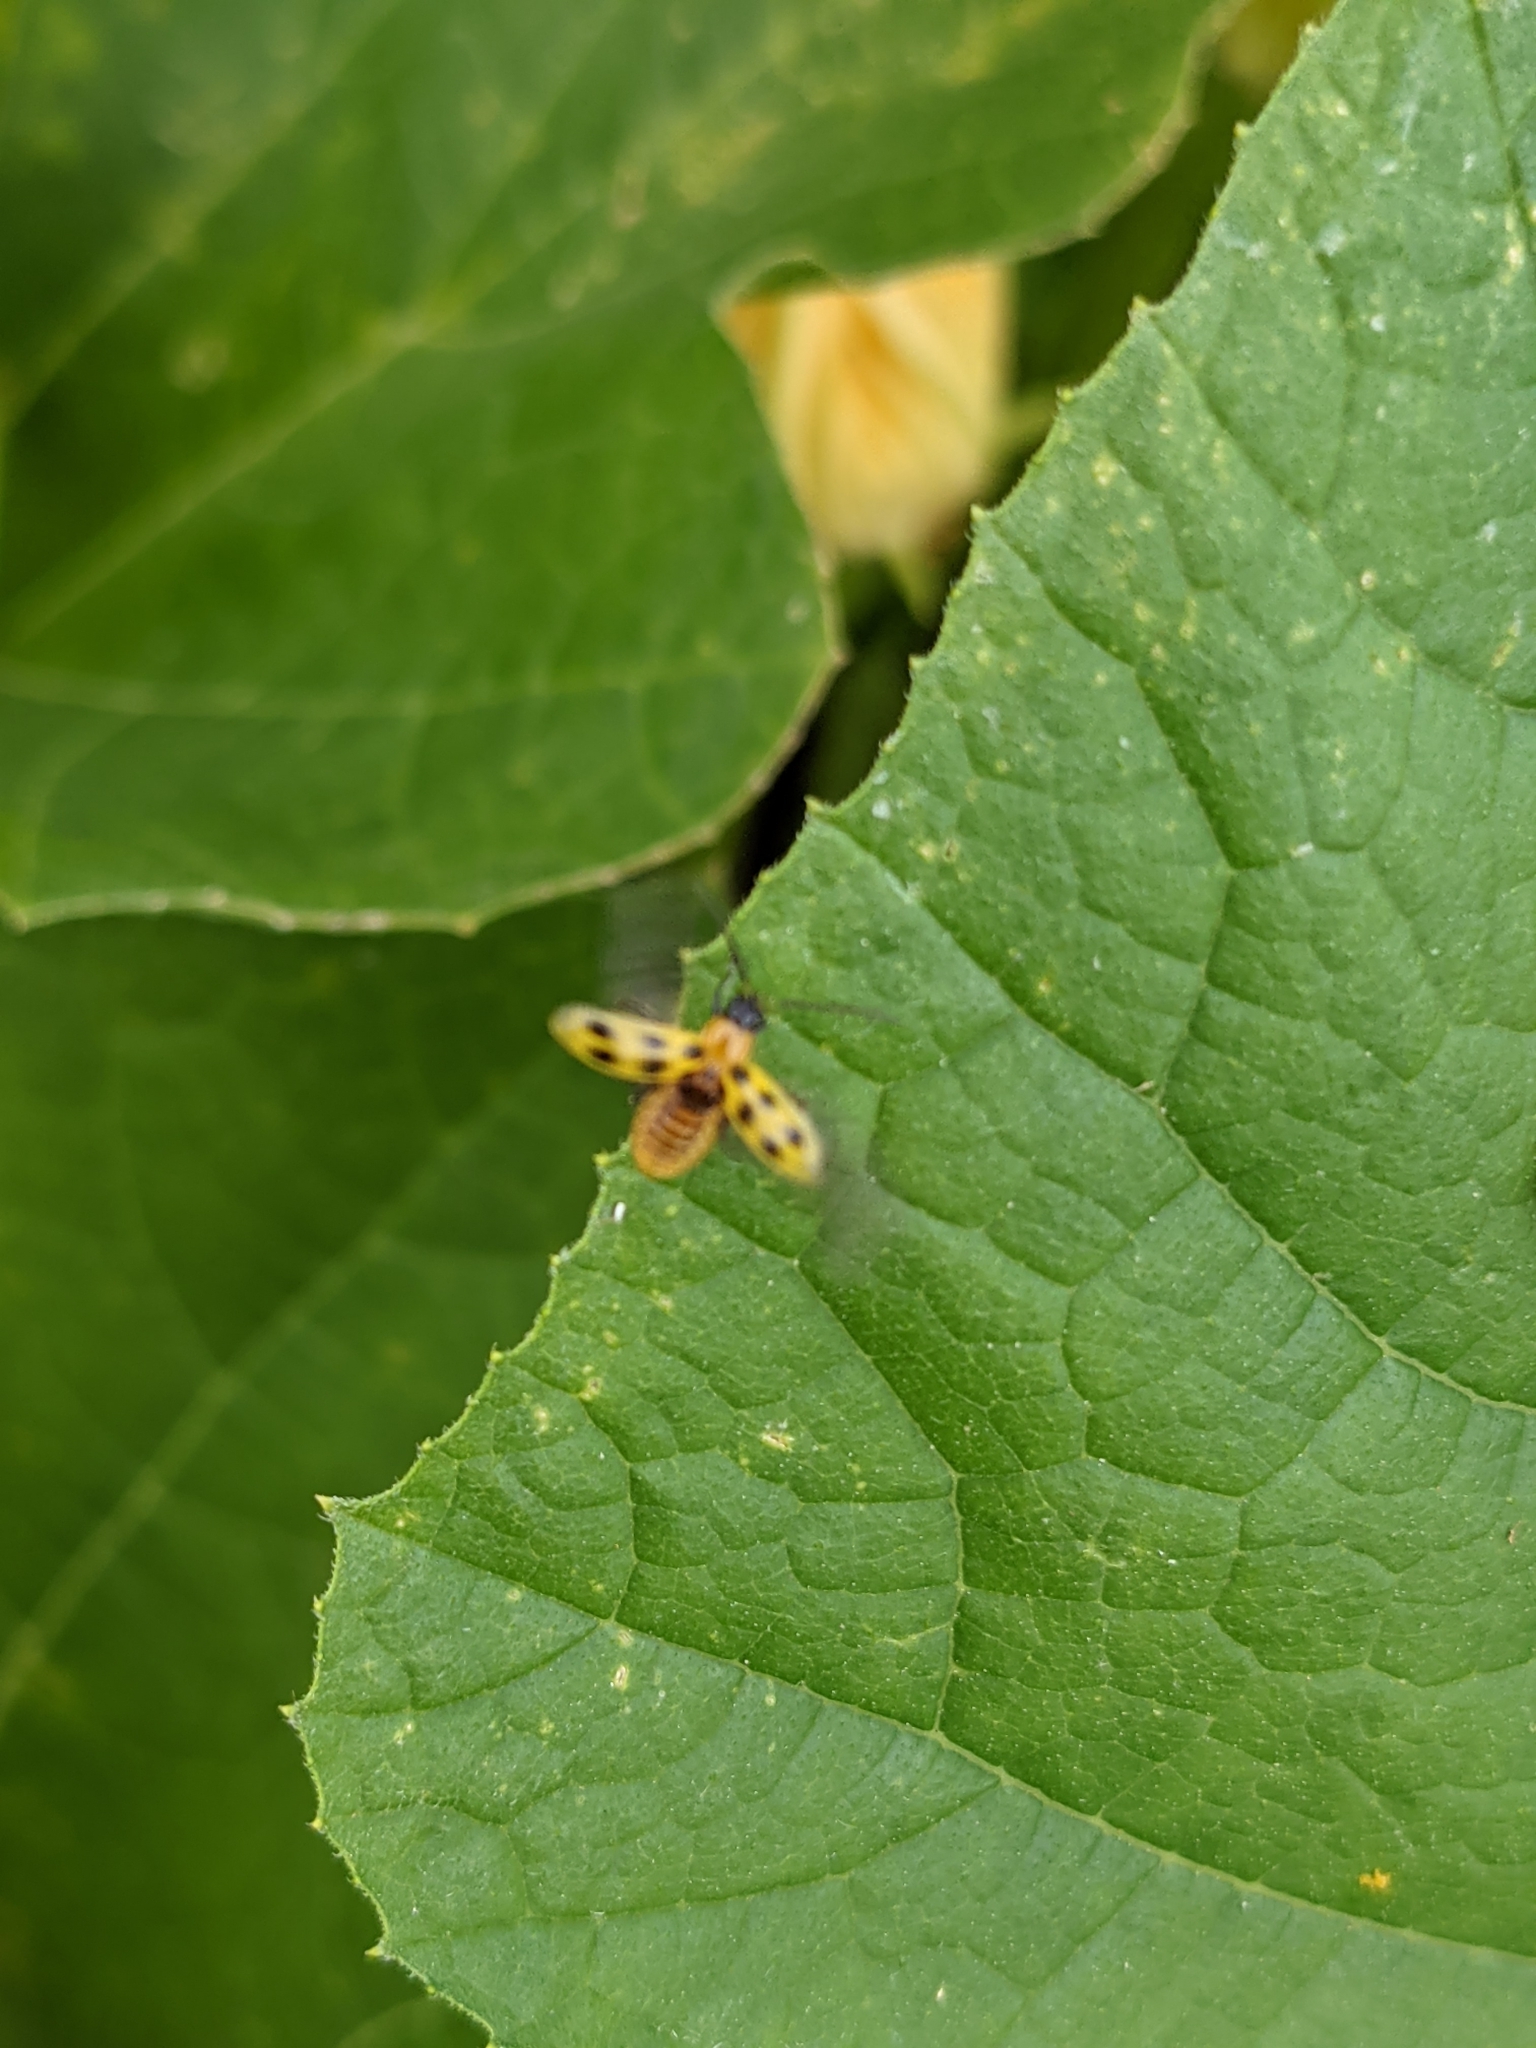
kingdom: Animalia
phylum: Arthropoda
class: Insecta
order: Coleoptera
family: Chrysomelidae
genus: Diabrotica
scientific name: Diabrotica undecimpunctata
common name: Spotted cucumber beetle
